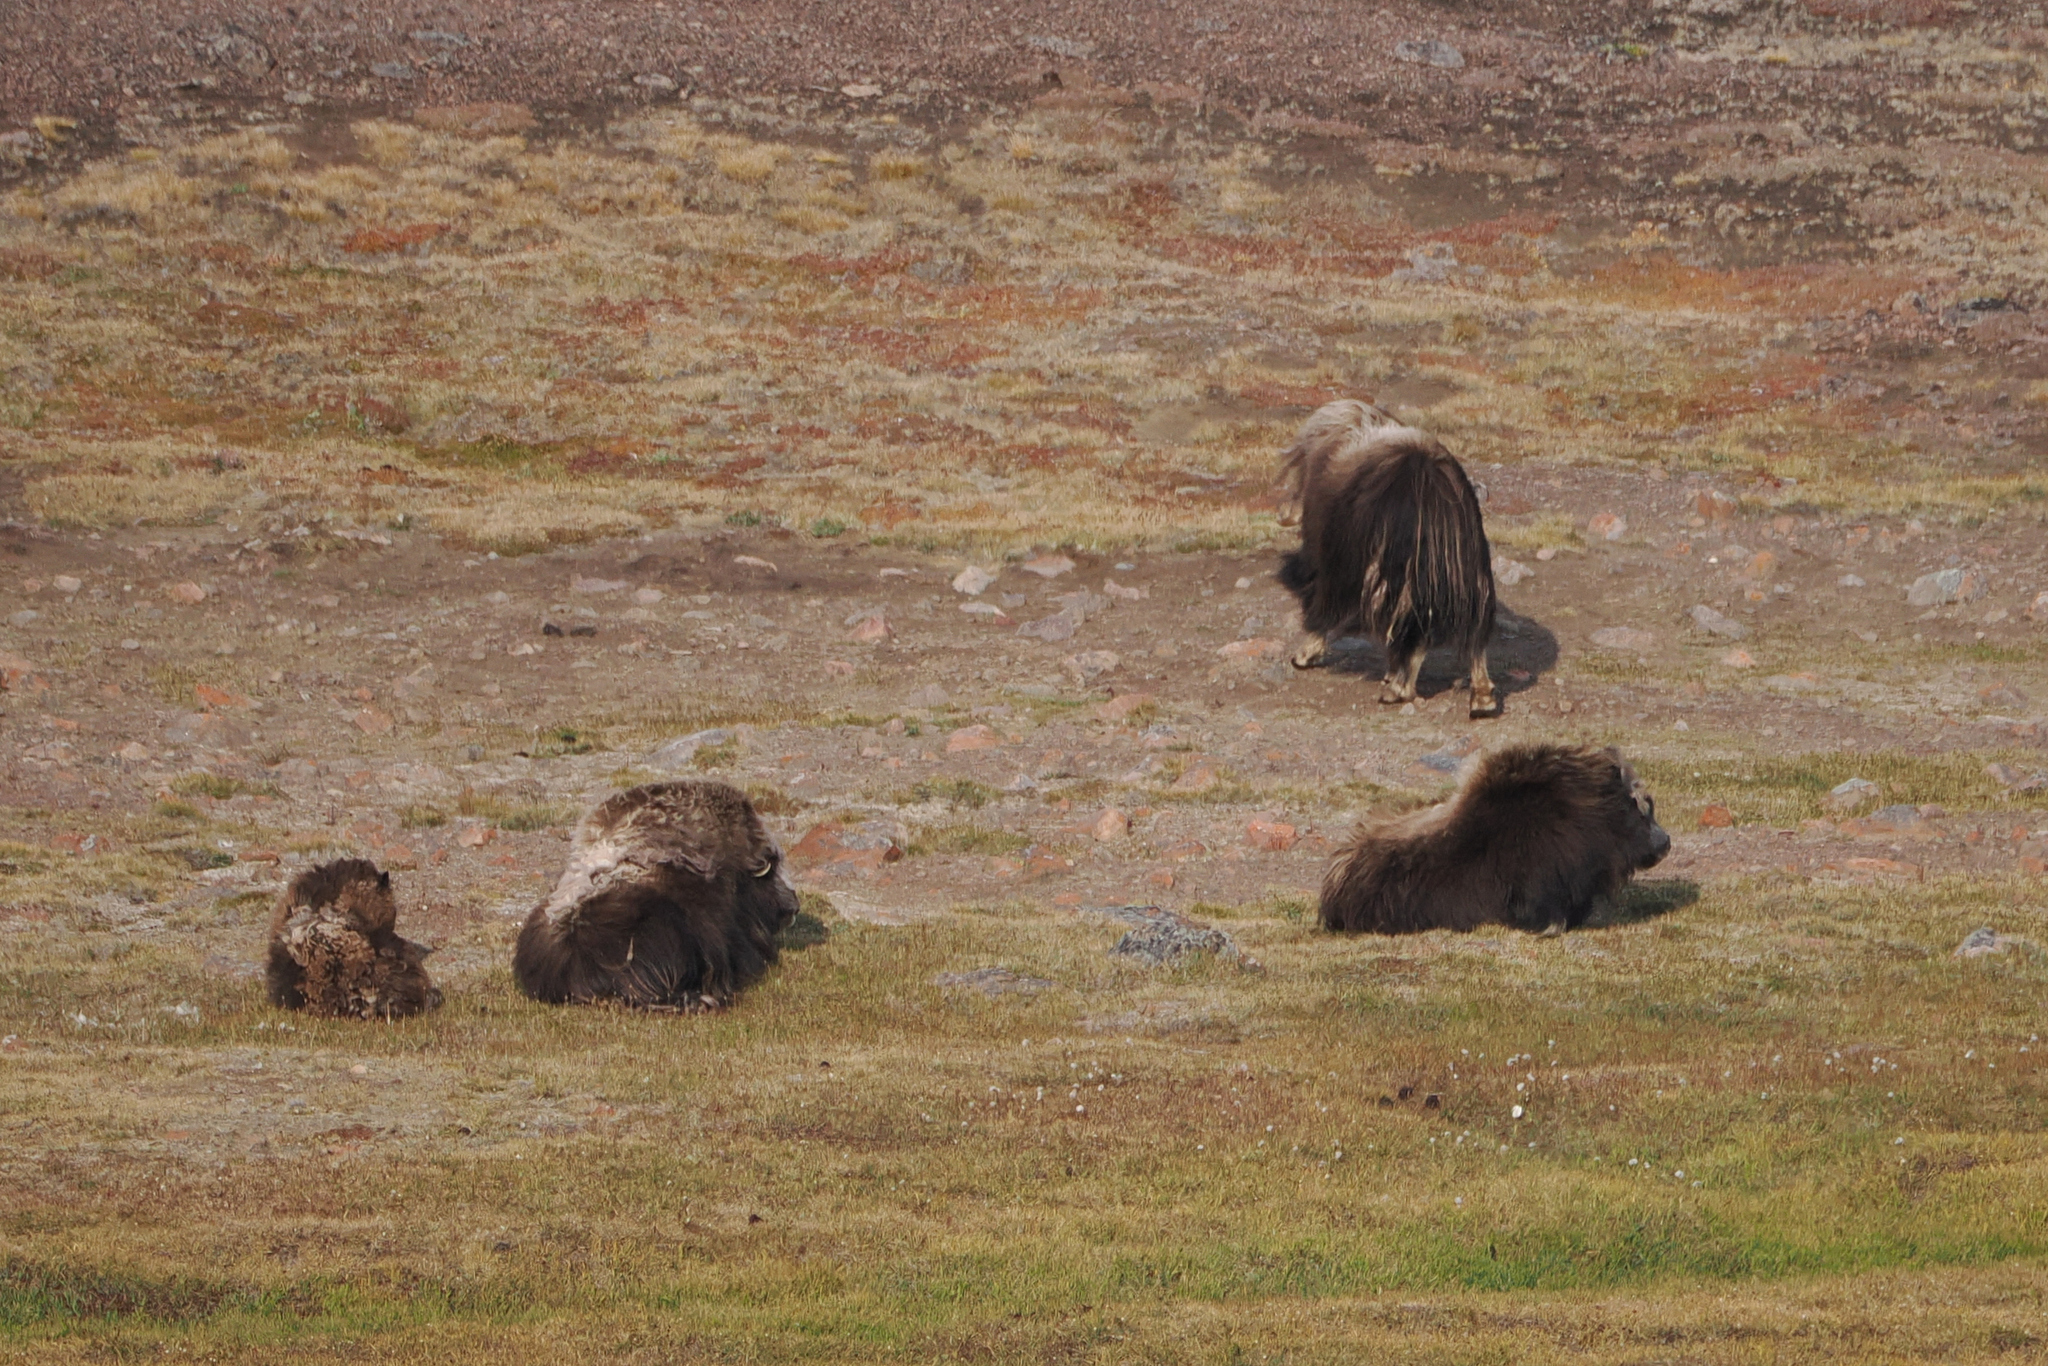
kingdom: Animalia
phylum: Chordata
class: Mammalia
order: Artiodactyla
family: Bovidae
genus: Ovibos
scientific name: Ovibos moschatus
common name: Muskox
